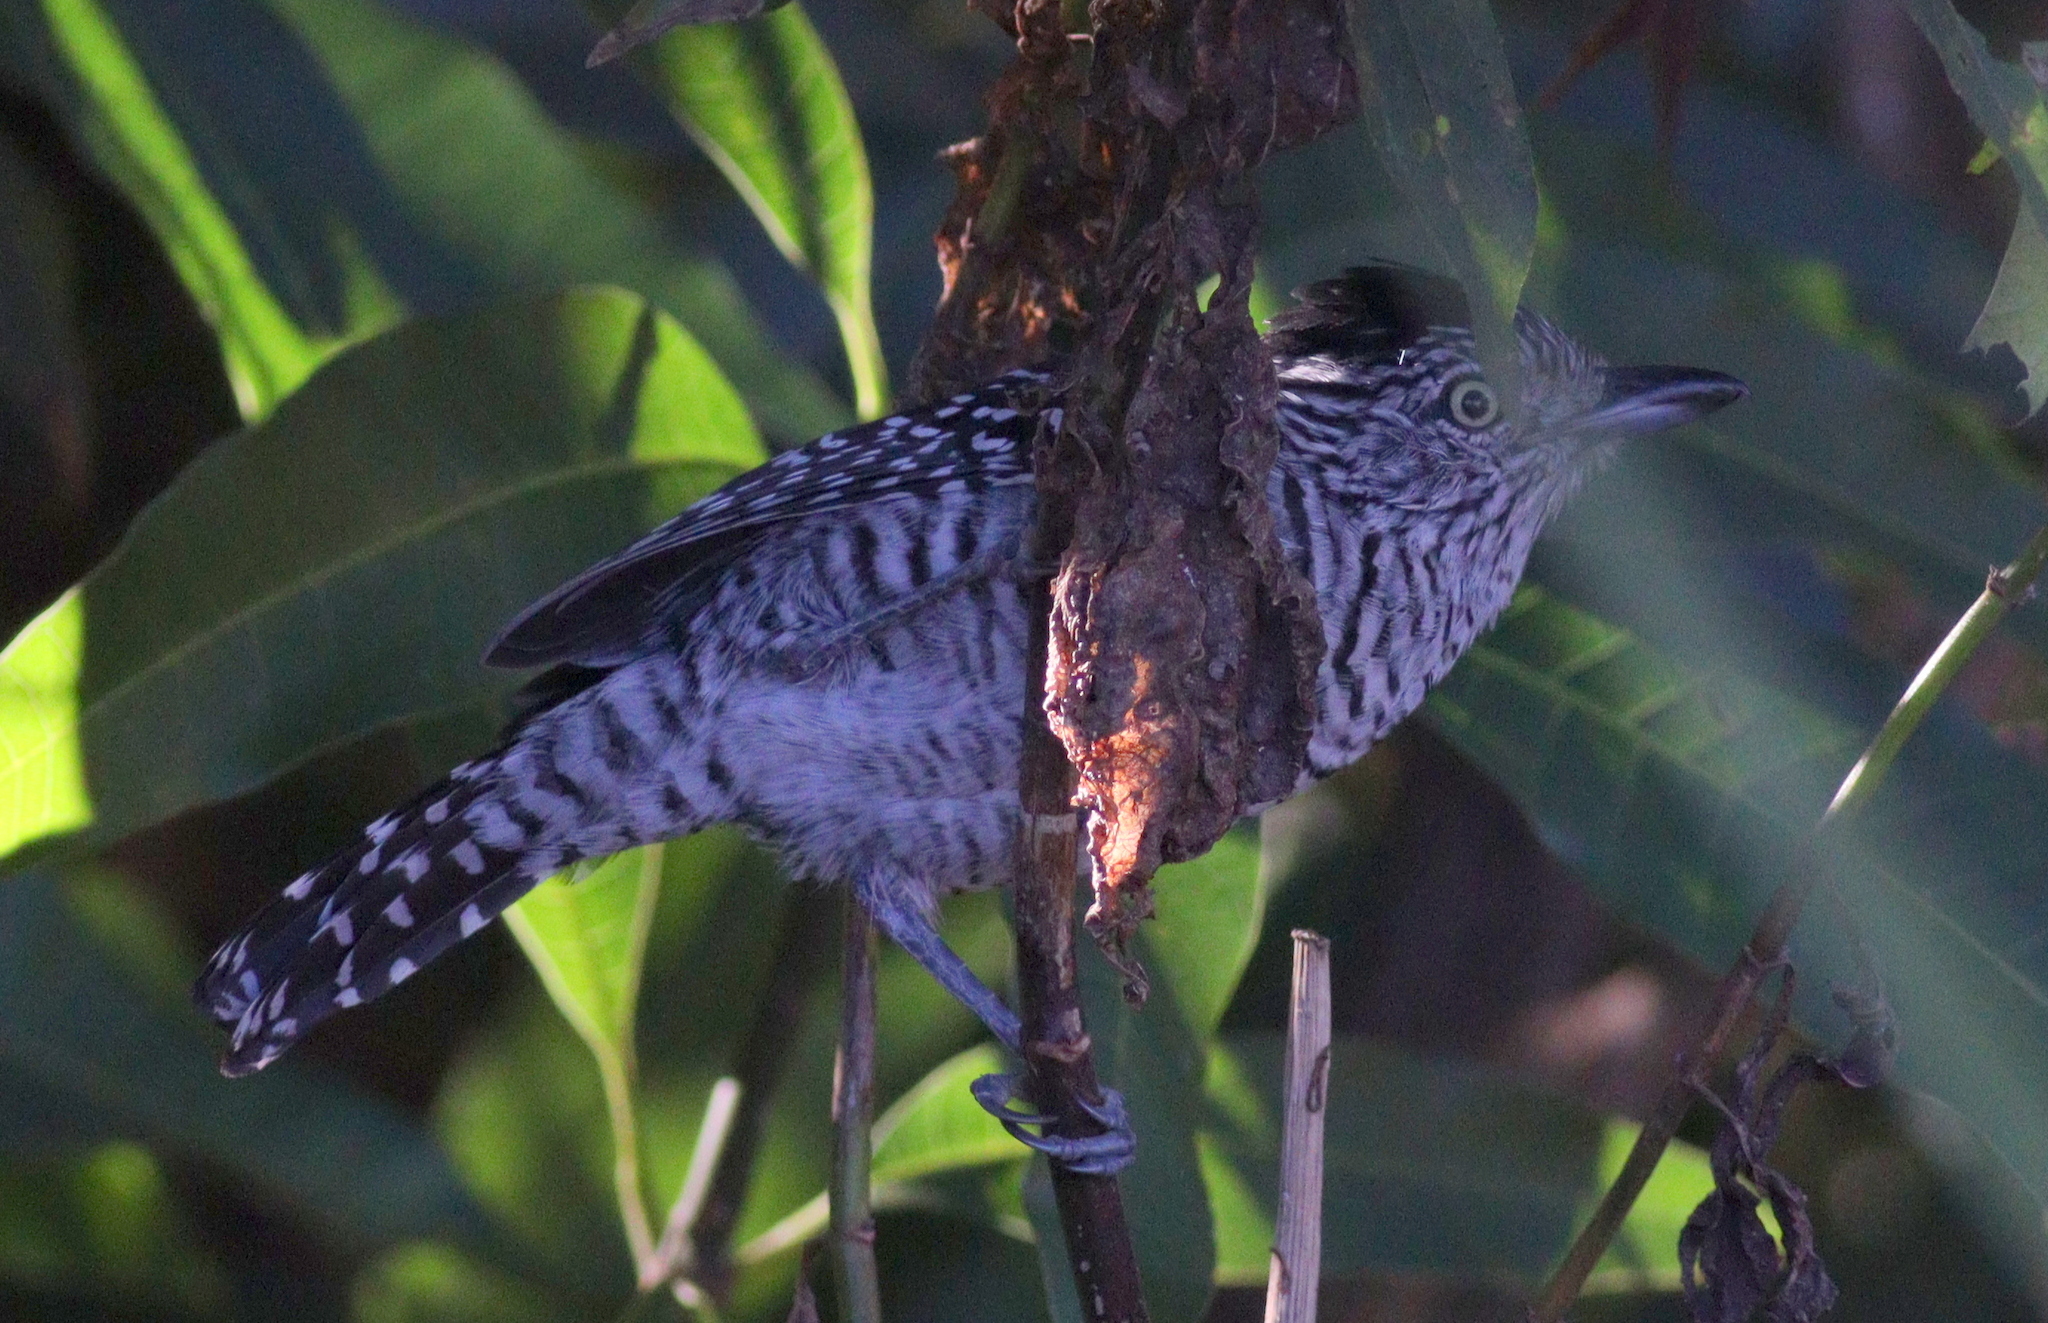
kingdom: Animalia
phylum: Chordata
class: Aves
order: Passeriformes
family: Thamnophilidae
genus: Thamnophilus
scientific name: Thamnophilus doliatus
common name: Barred antshrike
